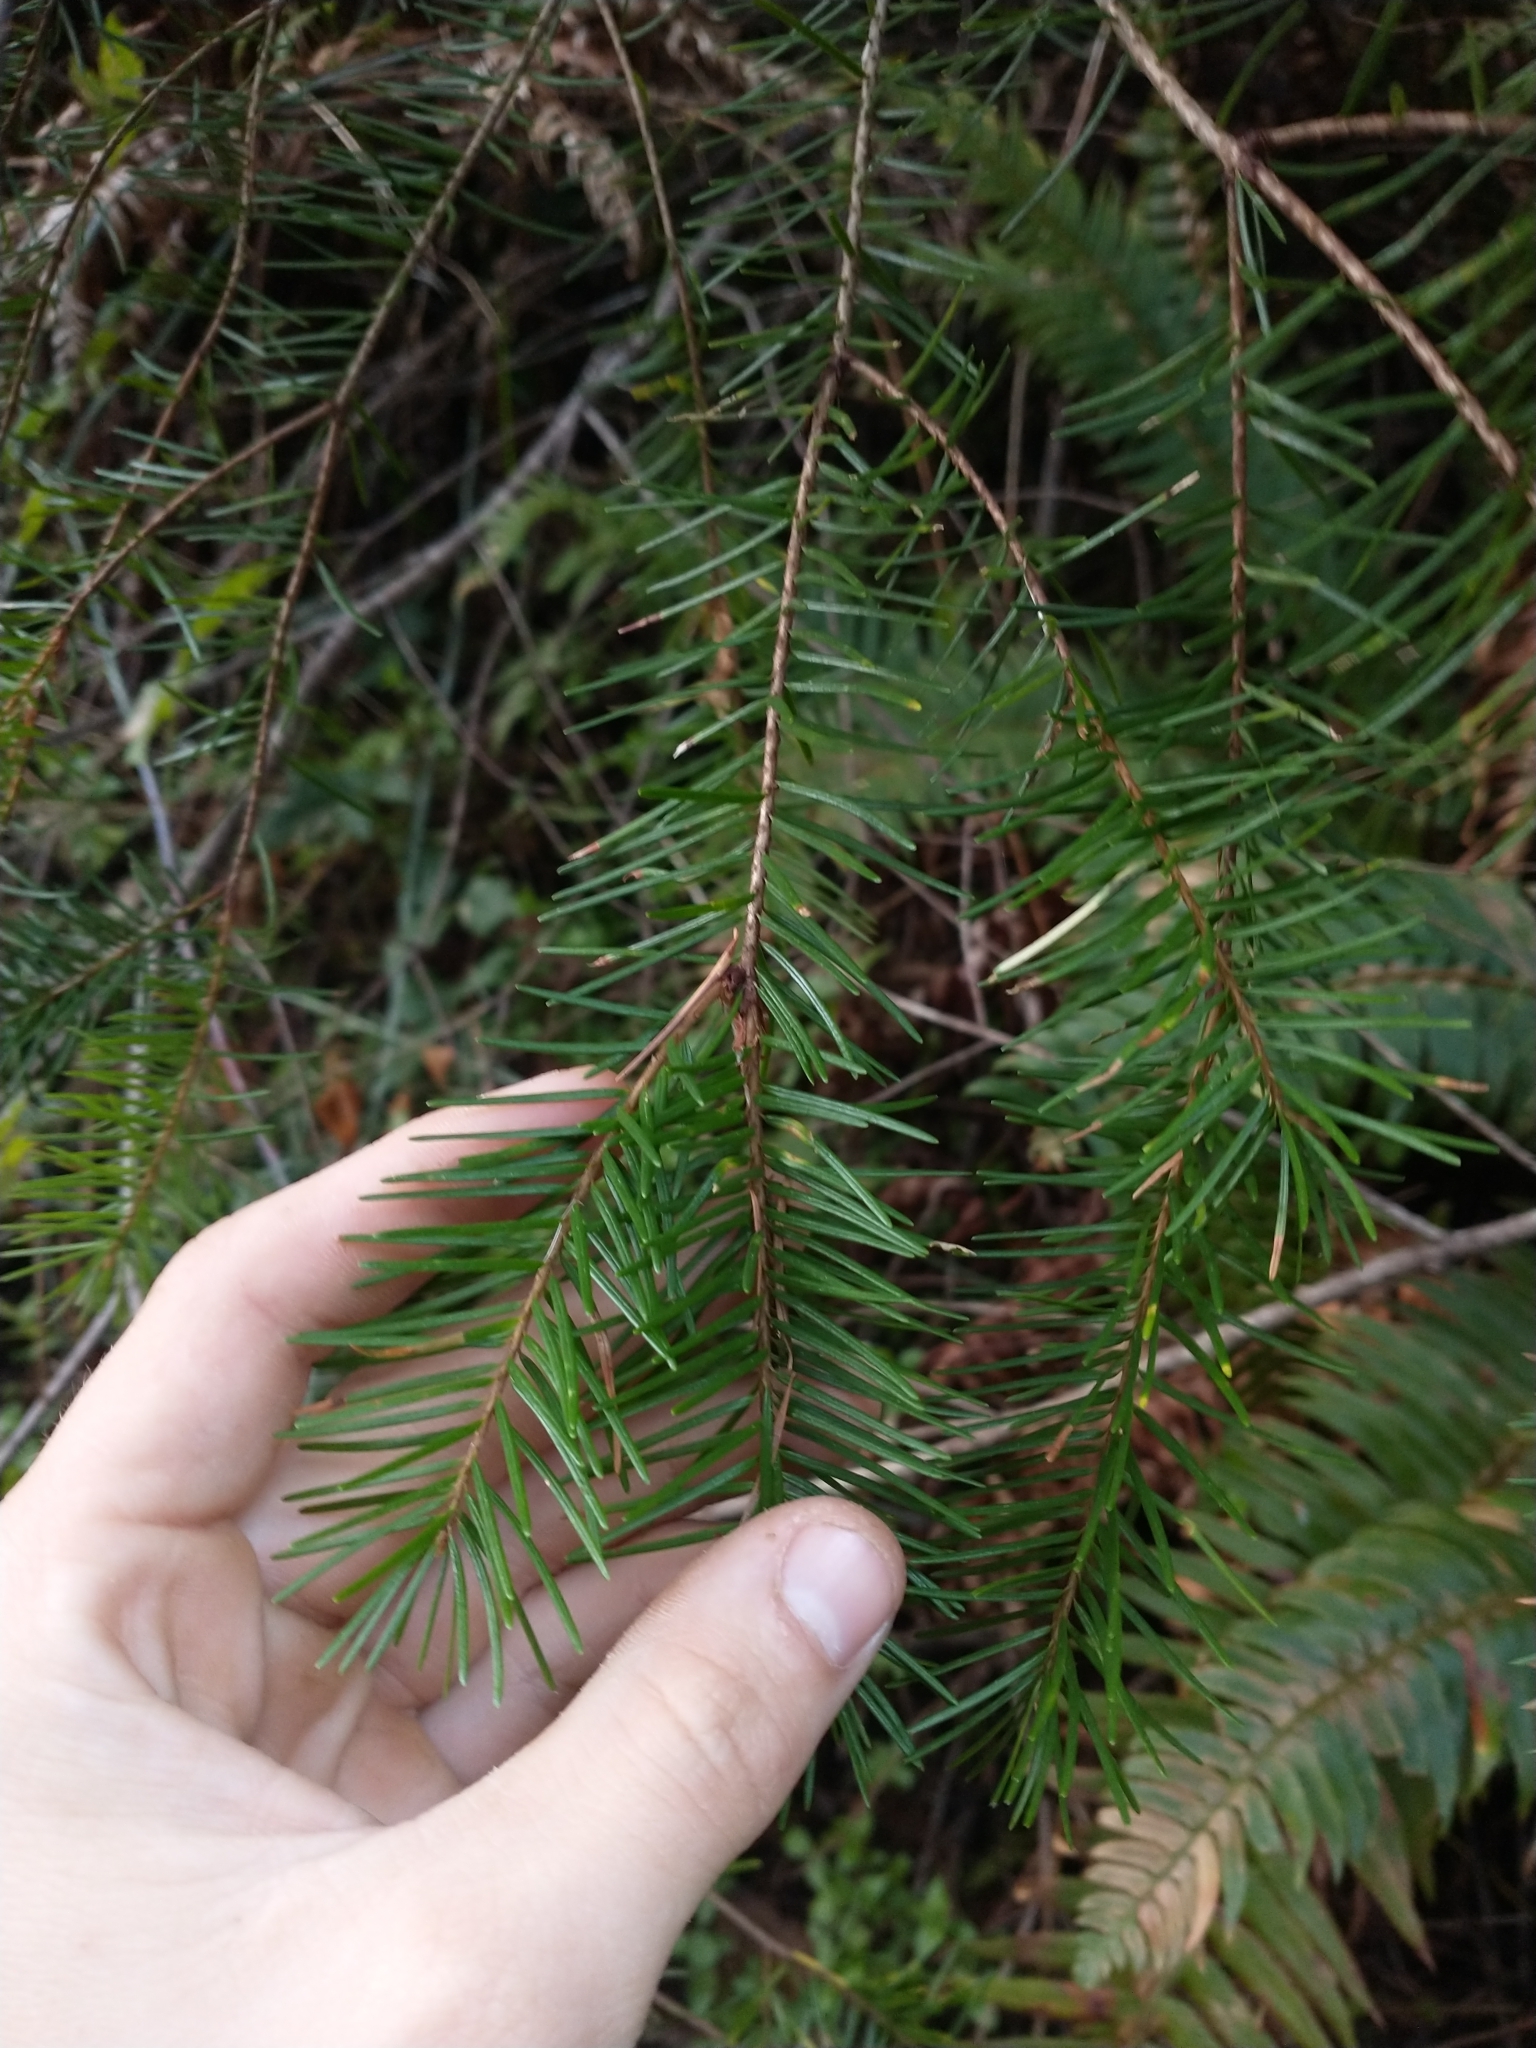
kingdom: Plantae
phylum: Tracheophyta
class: Pinopsida
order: Pinales
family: Pinaceae
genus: Pseudotsuga
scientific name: Pseudotsuga menziesii
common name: Douglas fir
